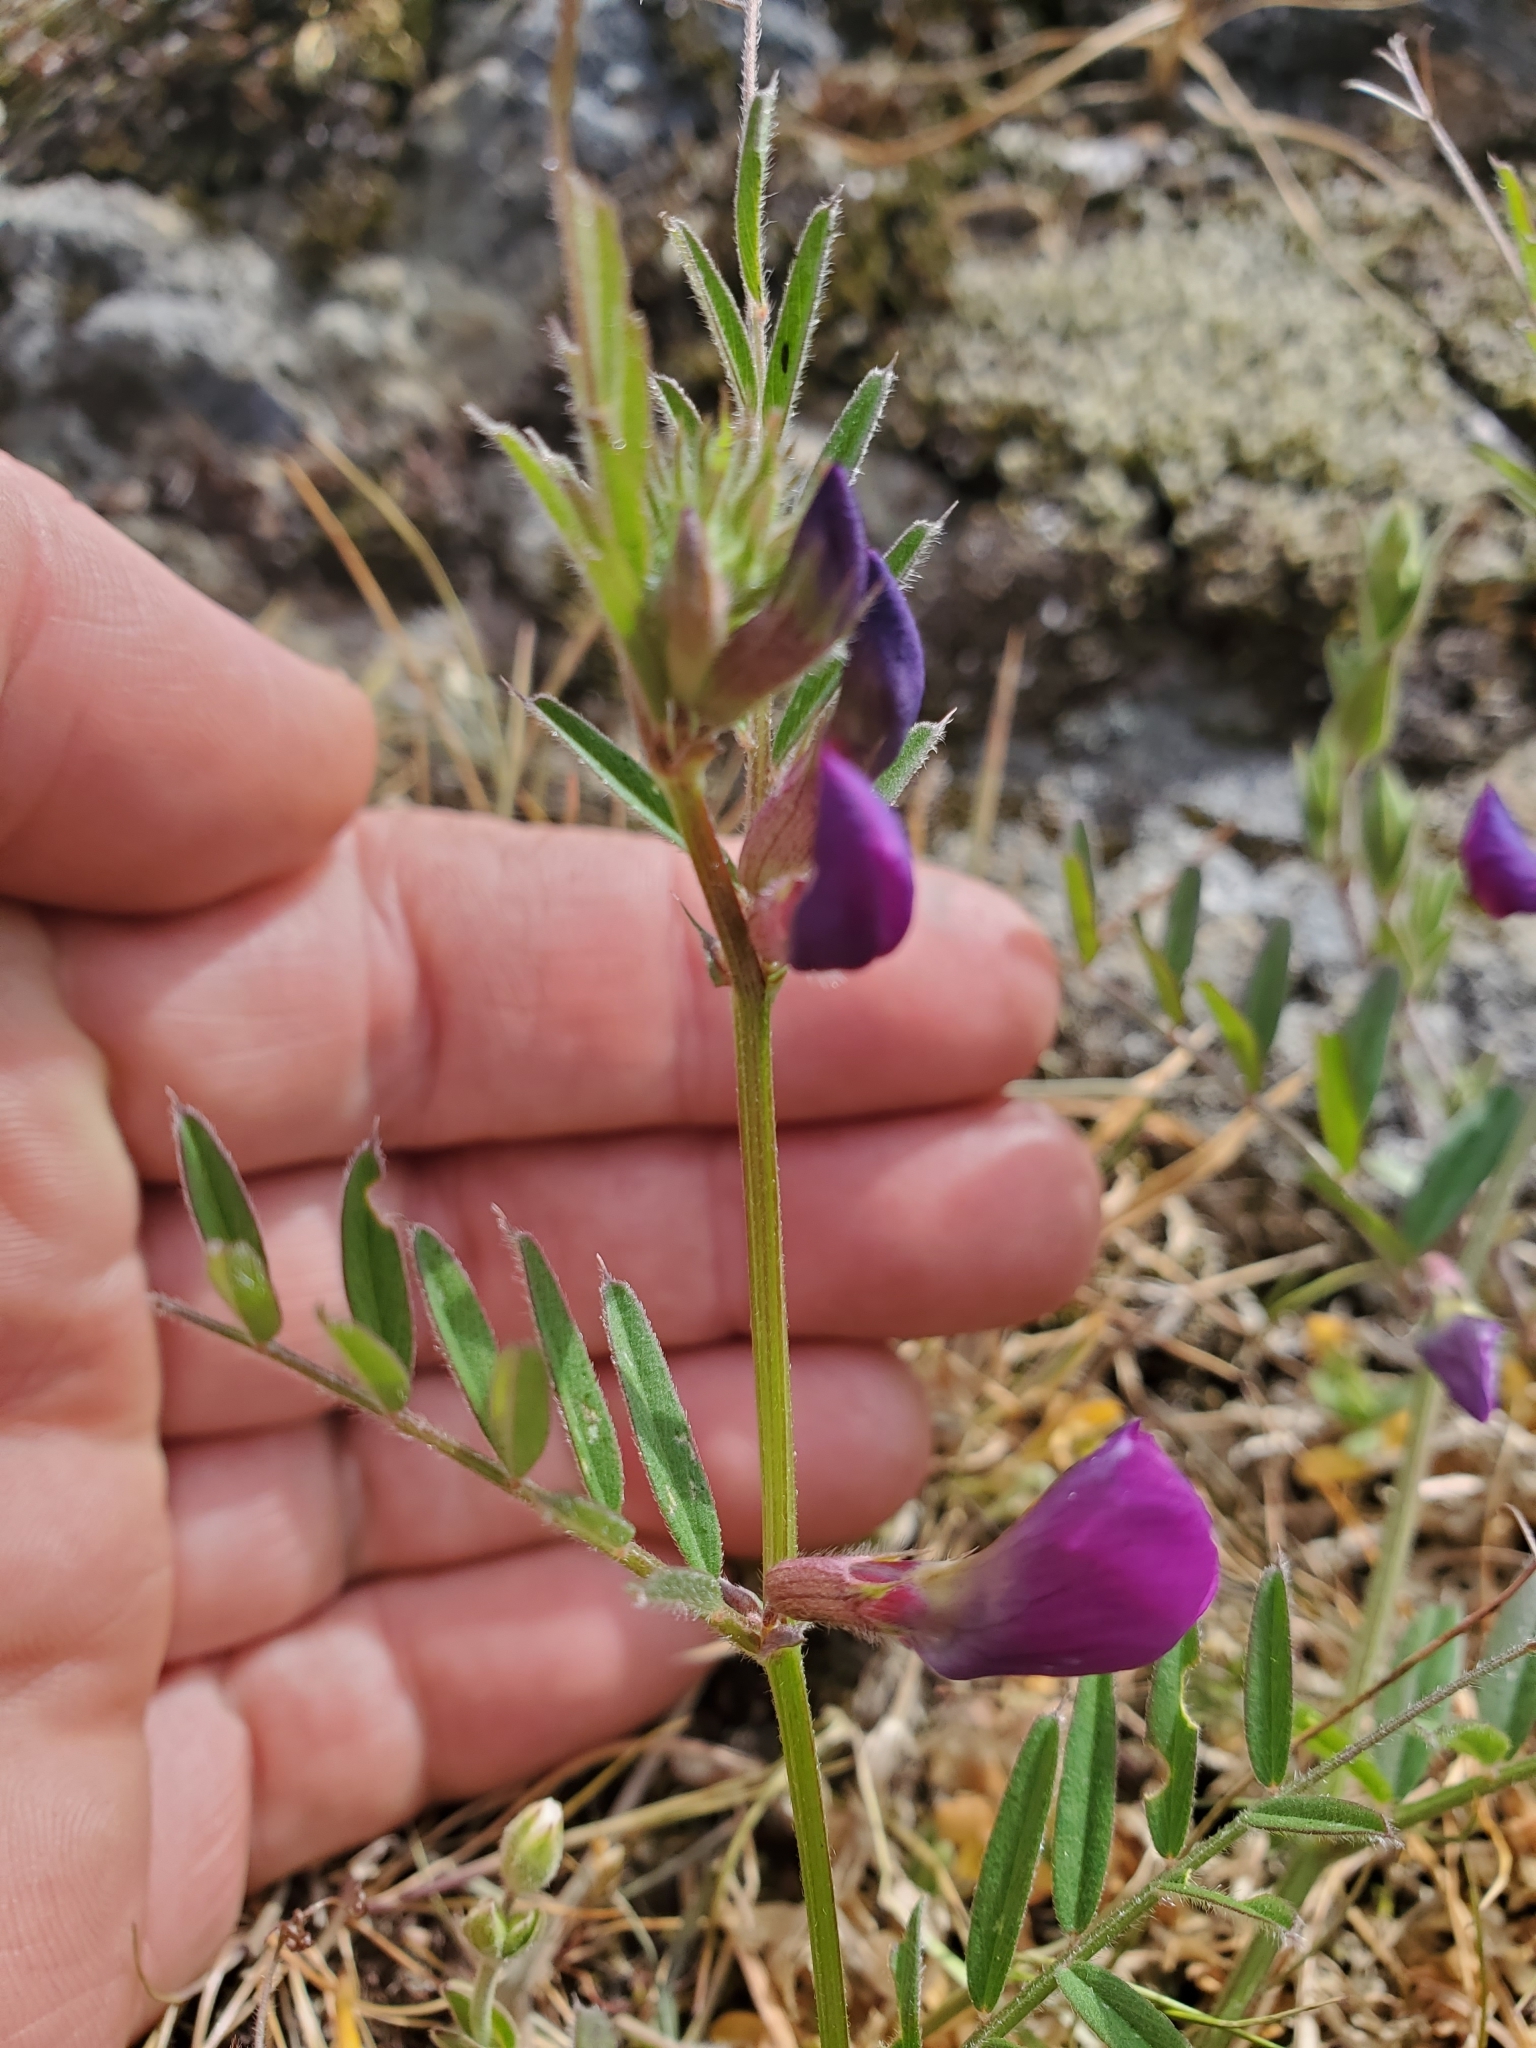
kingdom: Plantae
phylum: Tracheophyta
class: Magnoliopsida
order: Fabales
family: Fabaceae
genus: Vicia
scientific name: Vicia sativa
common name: Garden vetch
